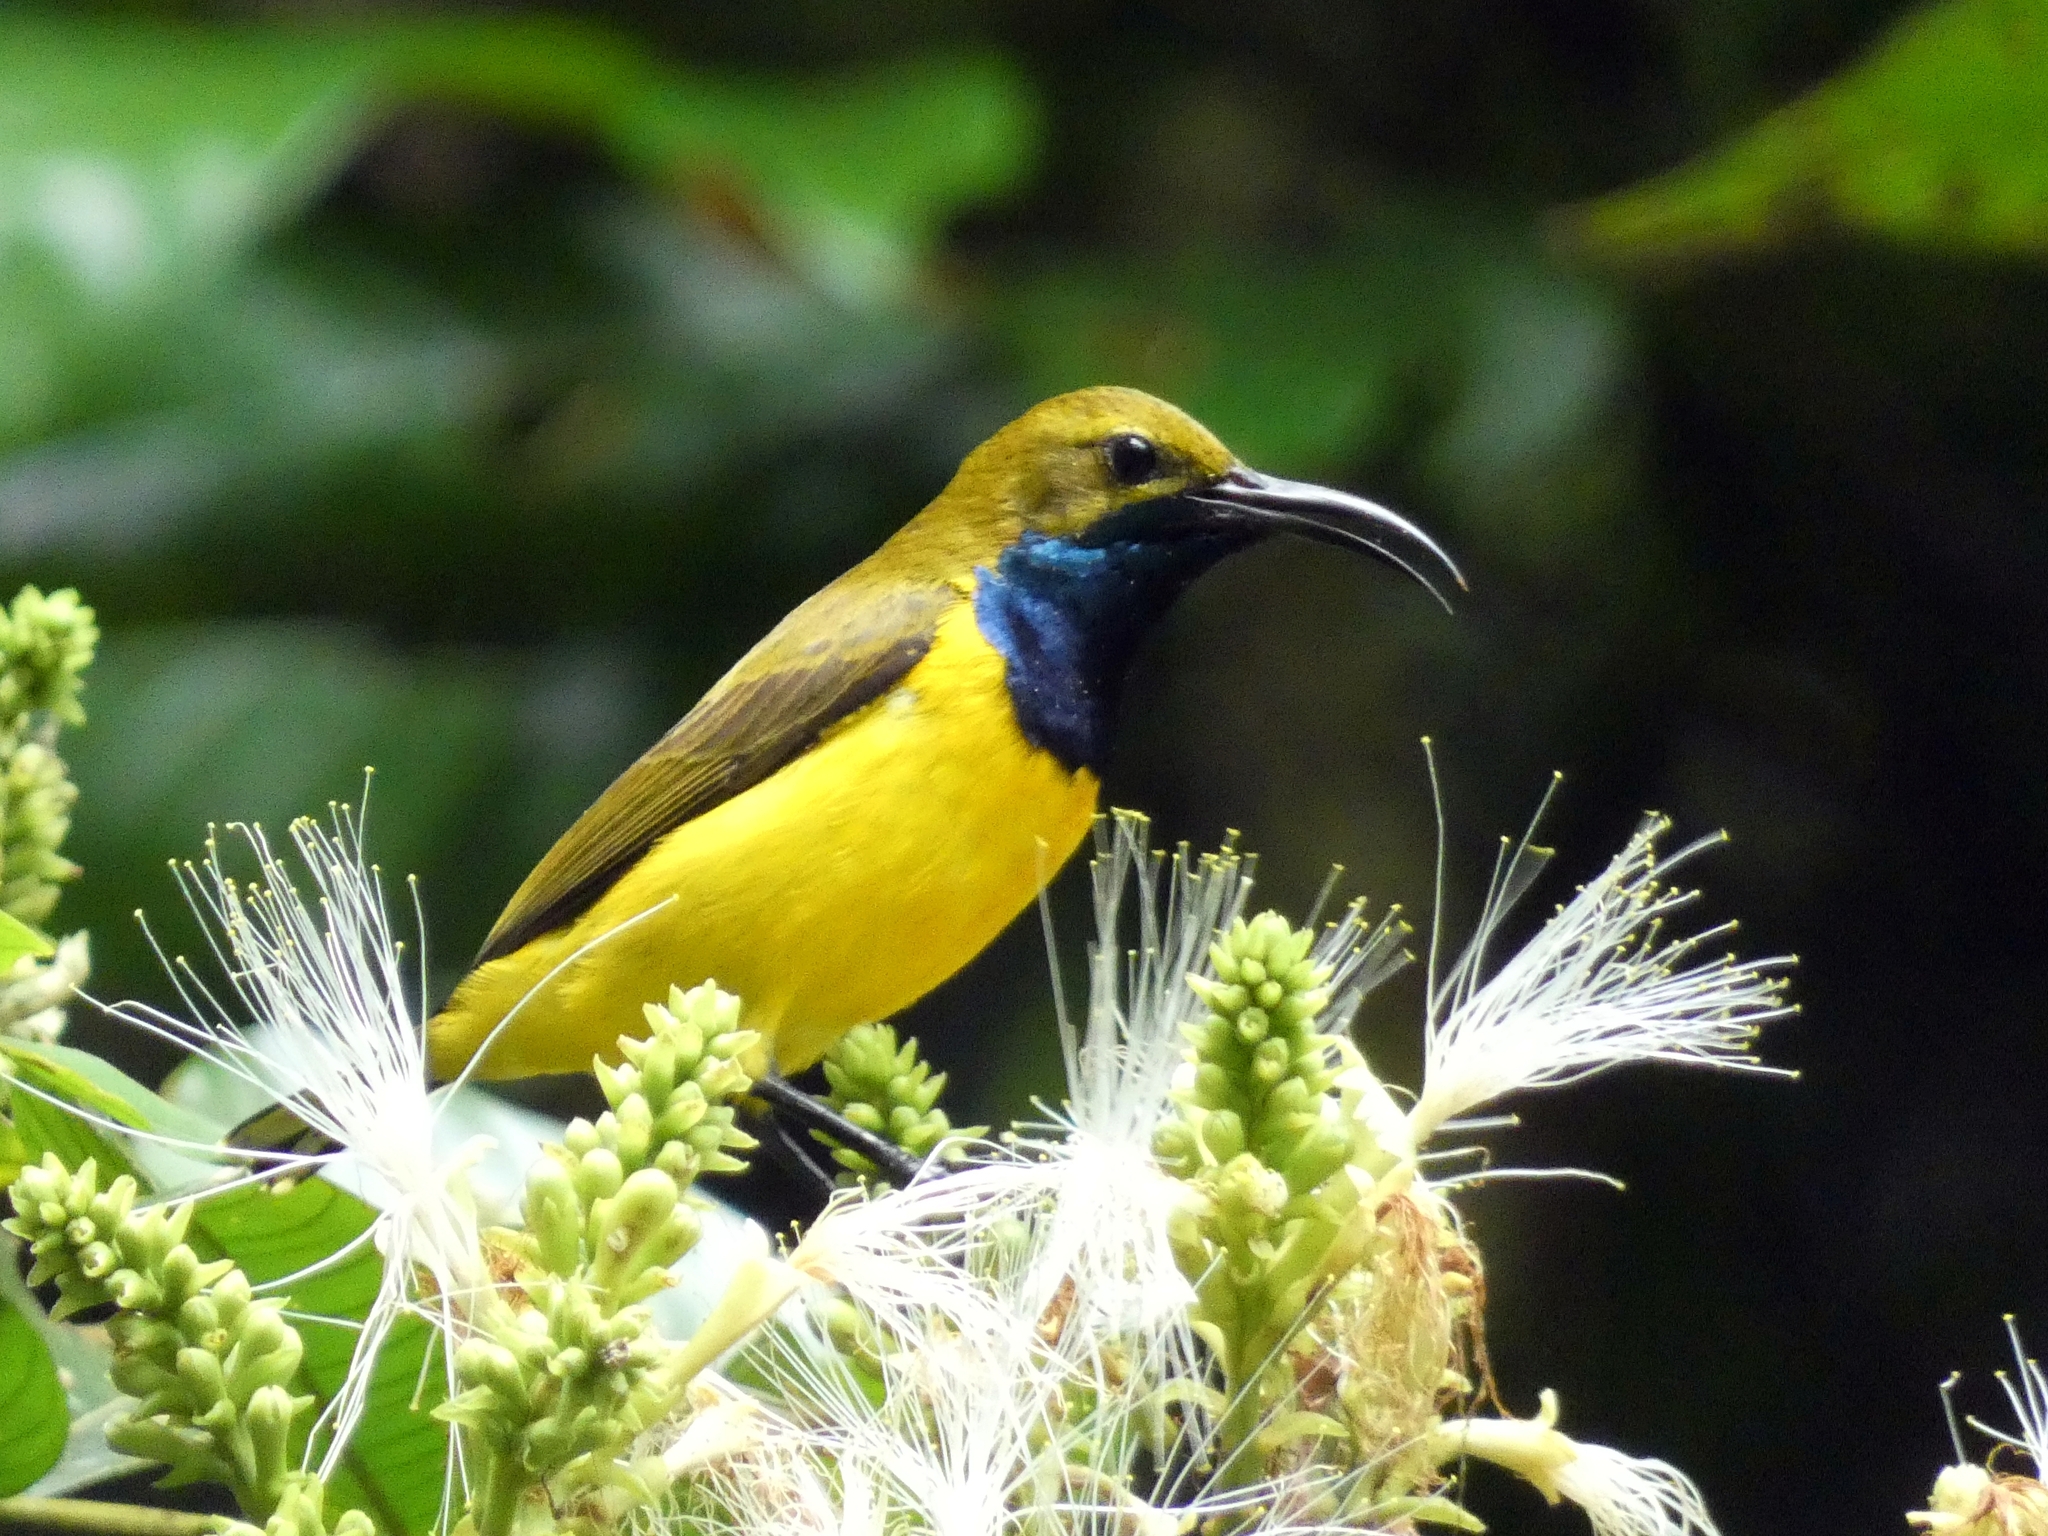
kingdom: Animalia
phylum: Chordata
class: Aves
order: Passeriformes
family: Nectariniidae
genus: Cinnyris
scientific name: Cinnyris
